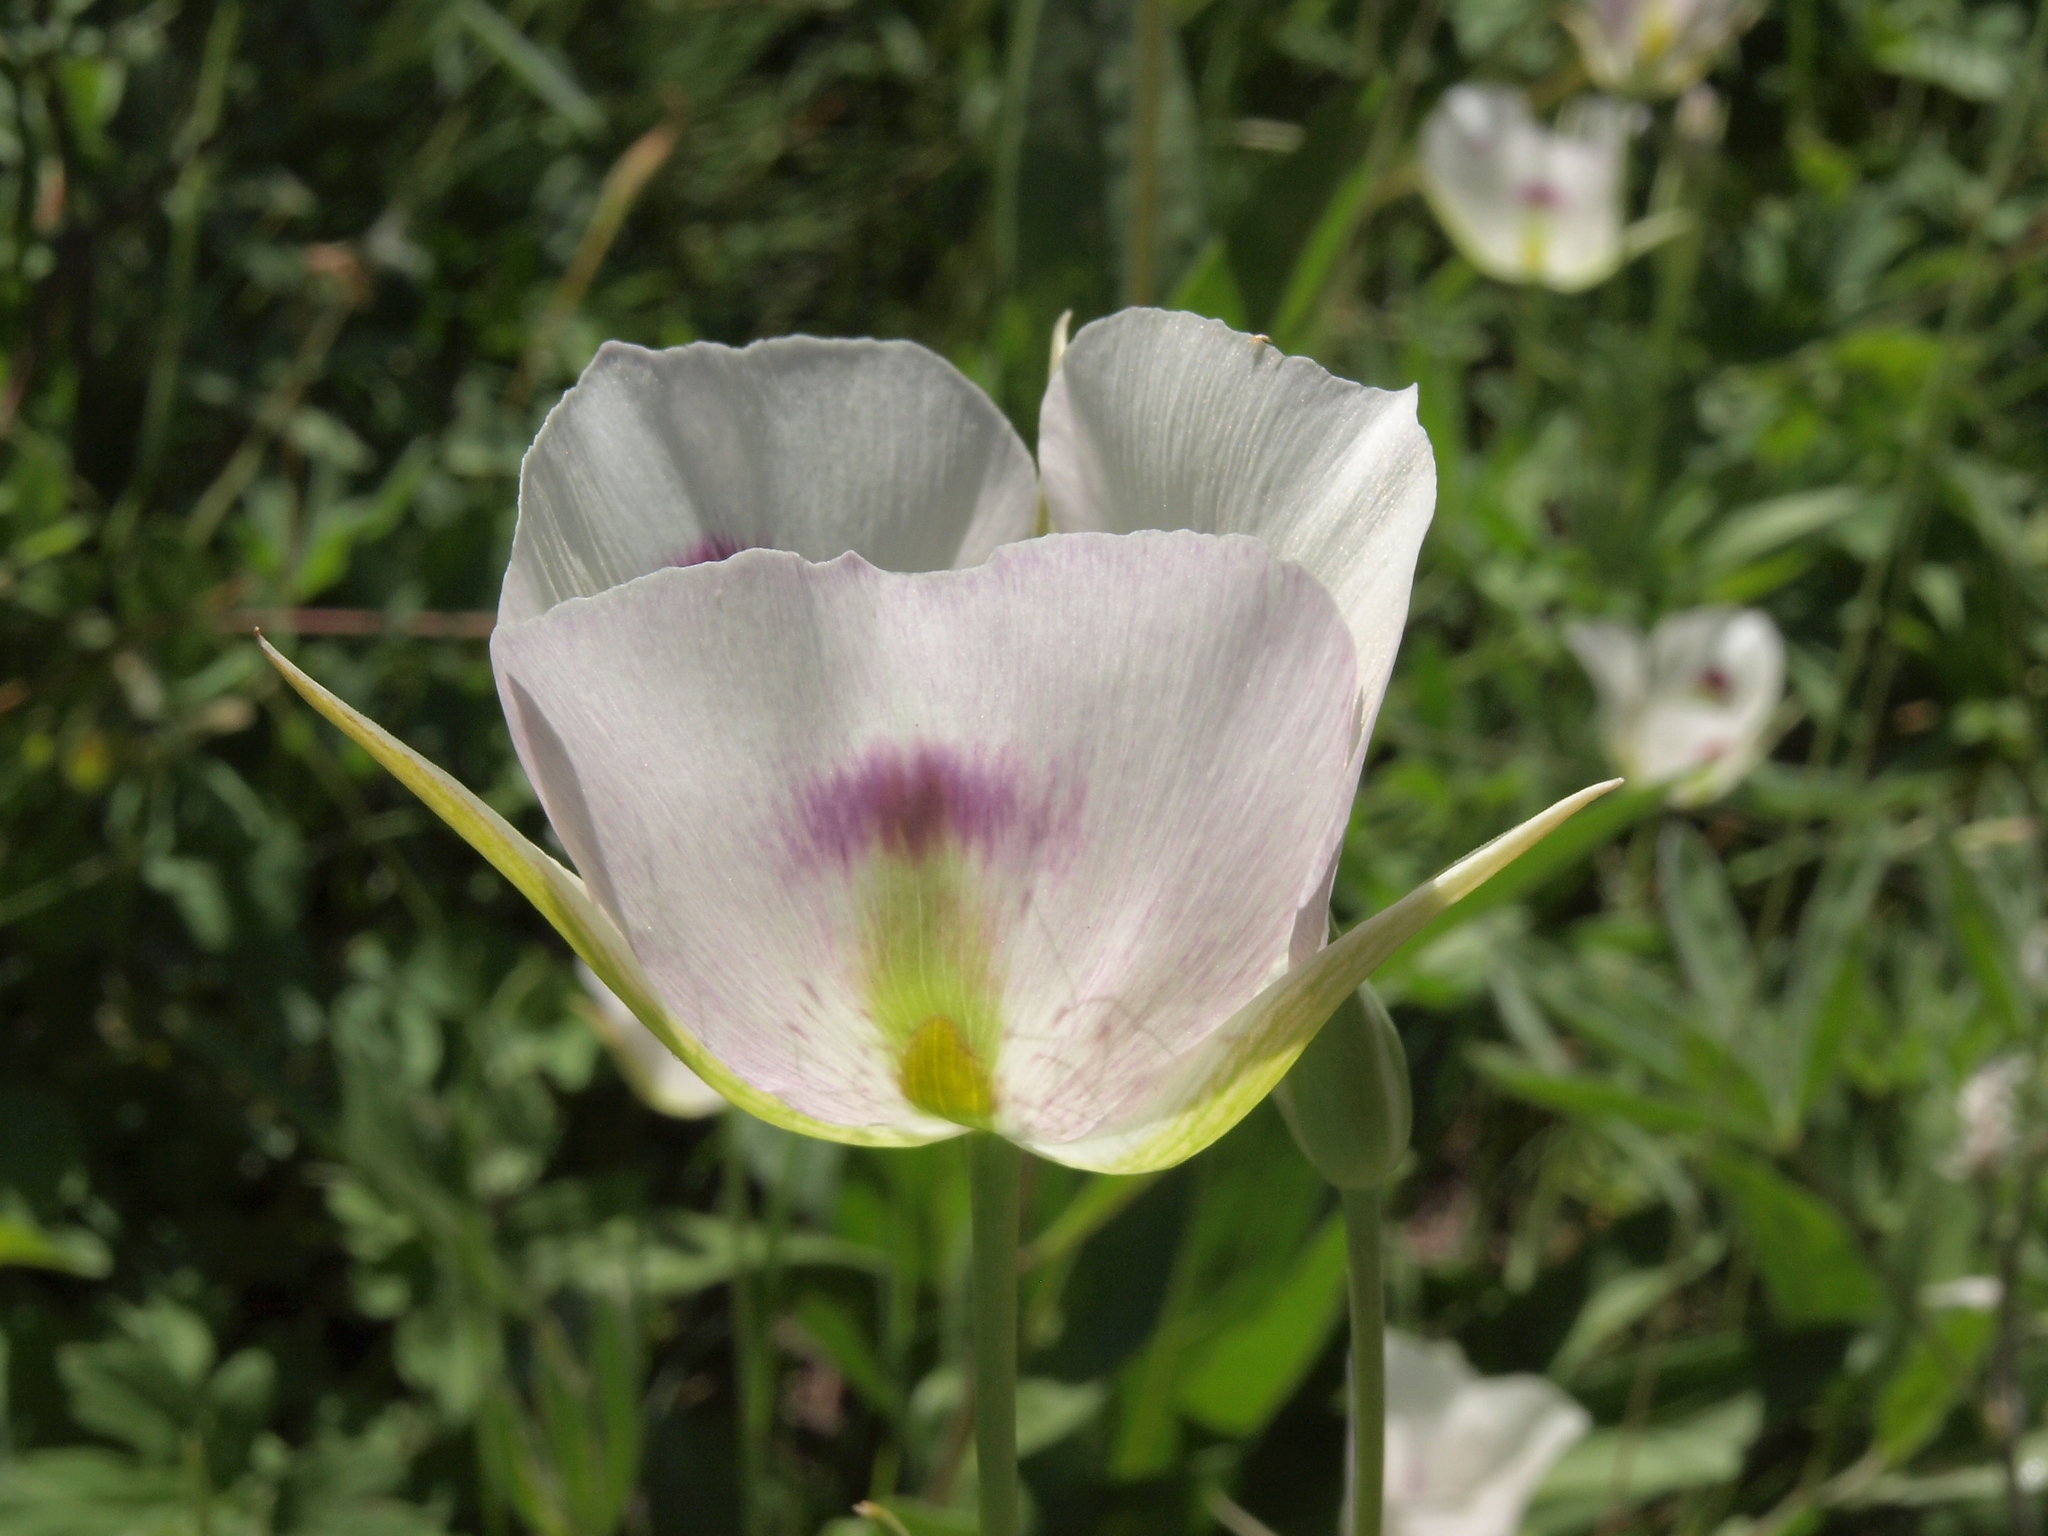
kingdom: Plantae
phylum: Tracheophyta
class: Liliopsida
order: Liliales
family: Liliaceae
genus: Calochortus
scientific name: Calochortus eurycarpus
